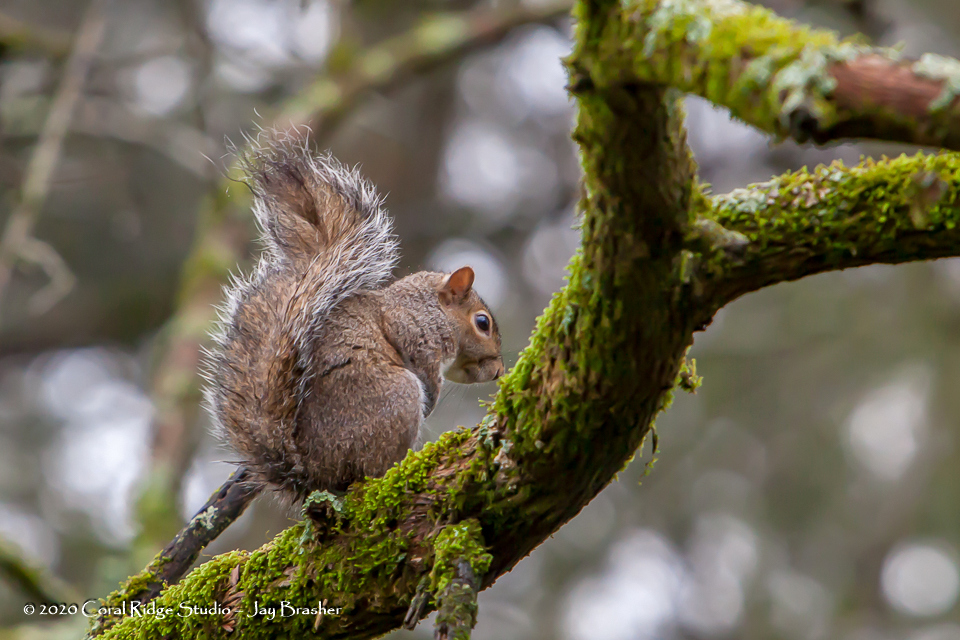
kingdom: Animalia
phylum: Chordata
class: Mammalia
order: Rodentia
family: Sciuridae
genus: Sciurus
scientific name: Sciurus carolinensis
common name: Eastern gray squirrel
